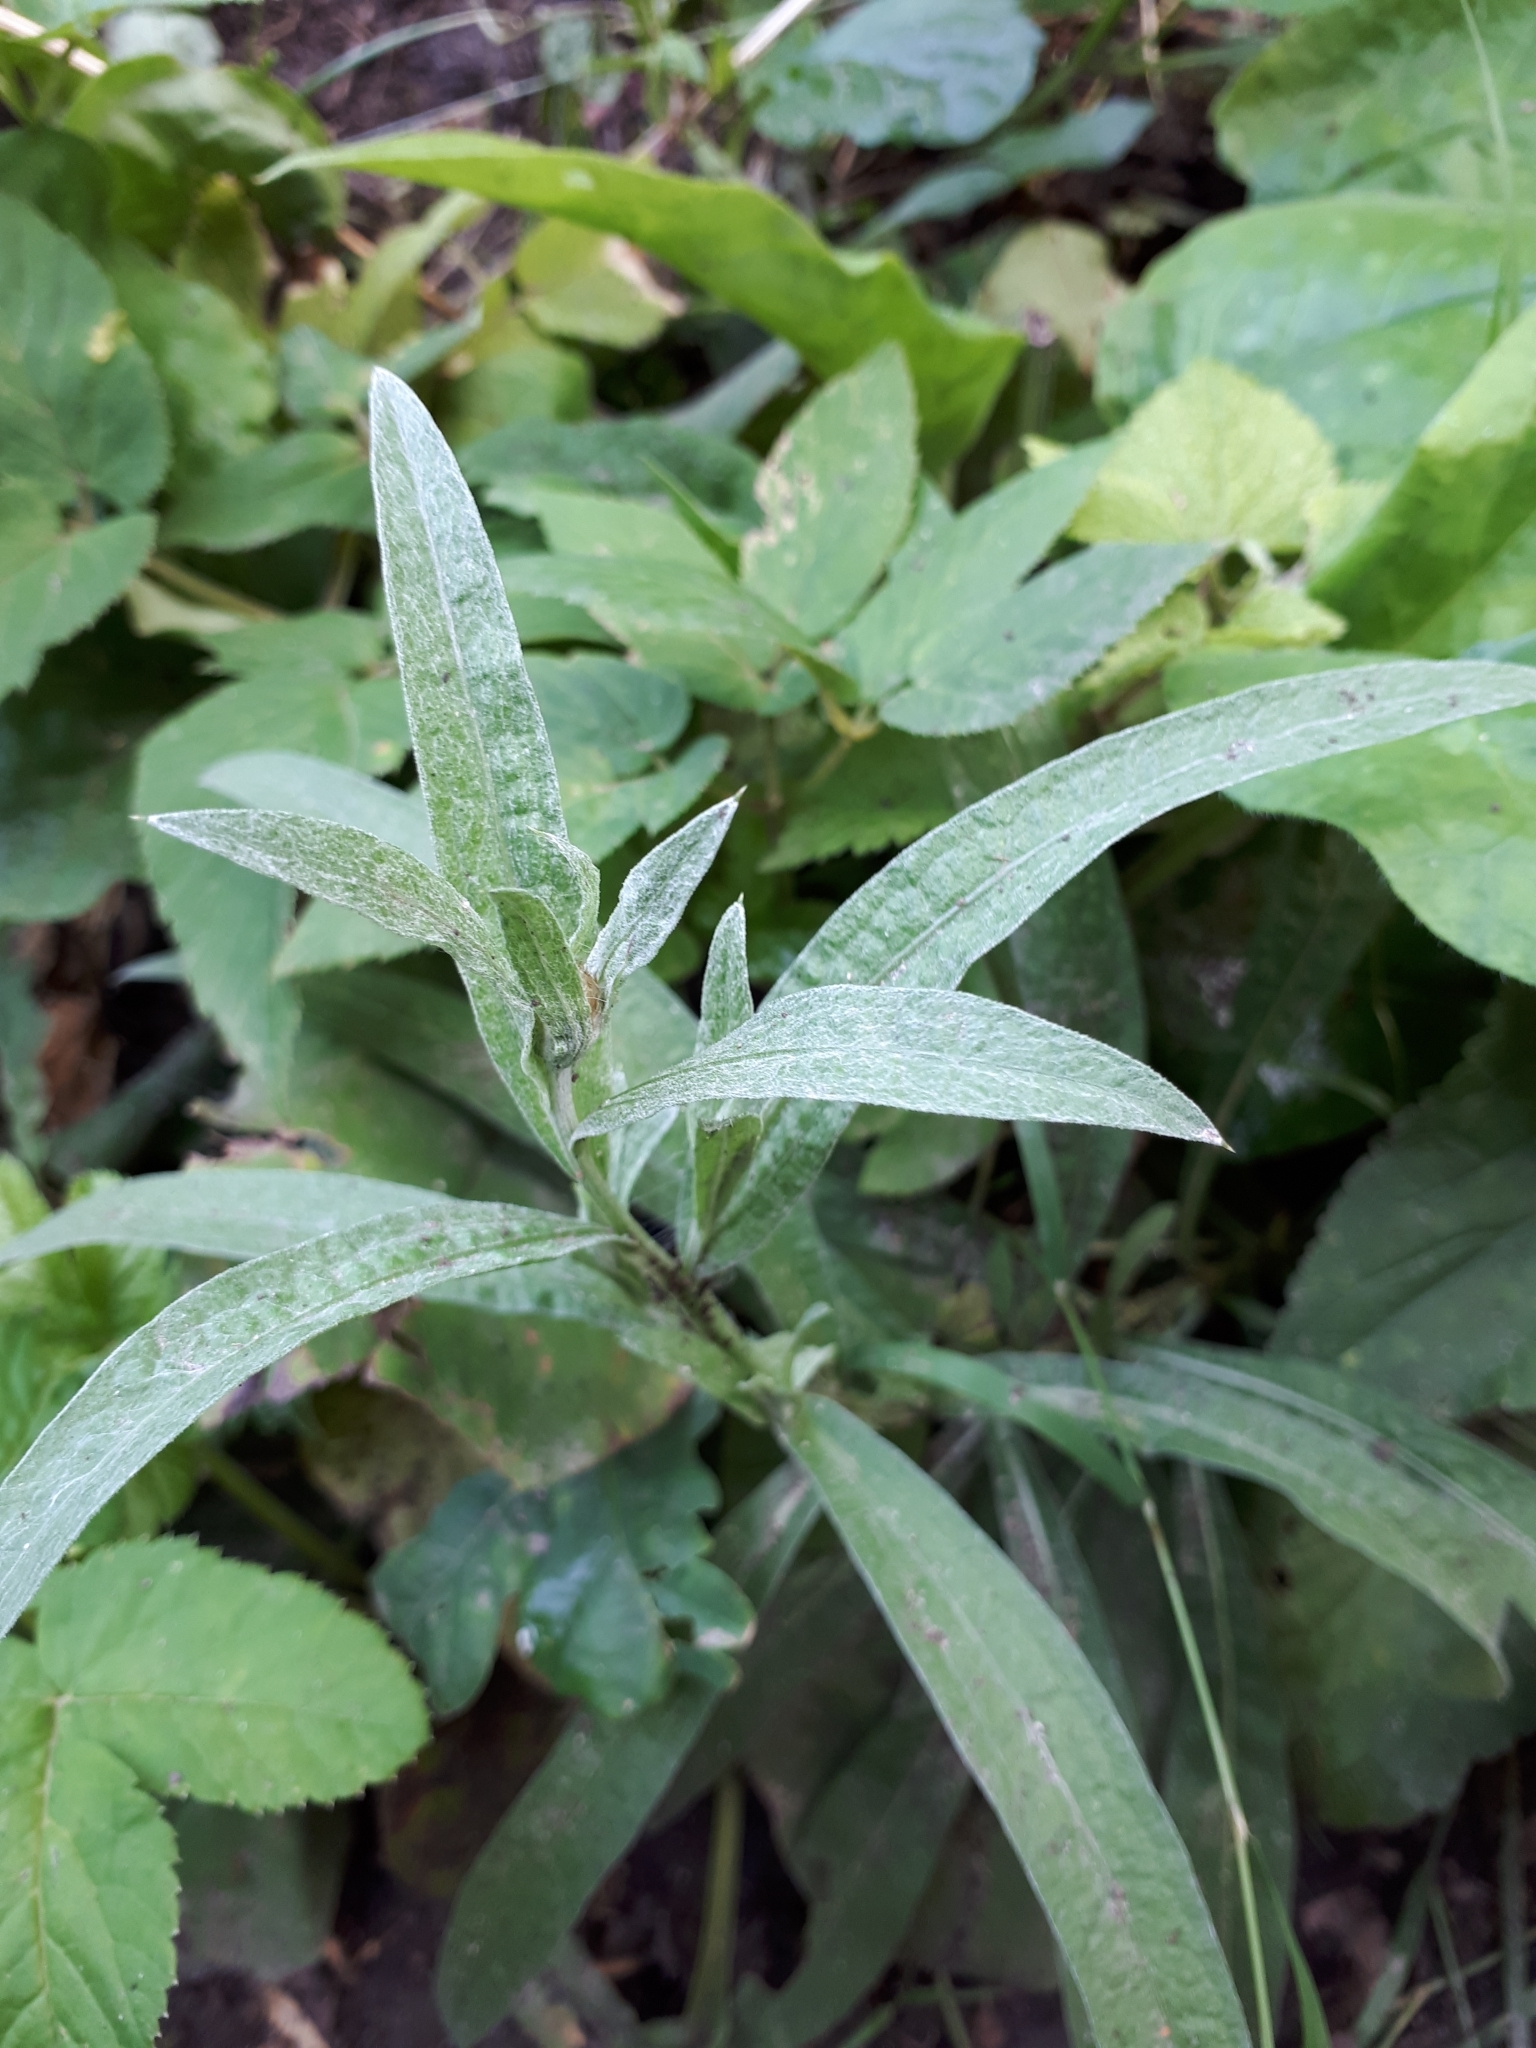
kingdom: Plantae
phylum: Tracheophyta
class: Magnoliopsida
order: Asterales
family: Asteraceae
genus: Centaurea
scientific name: Centaurea jacea
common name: Brown knapweed
